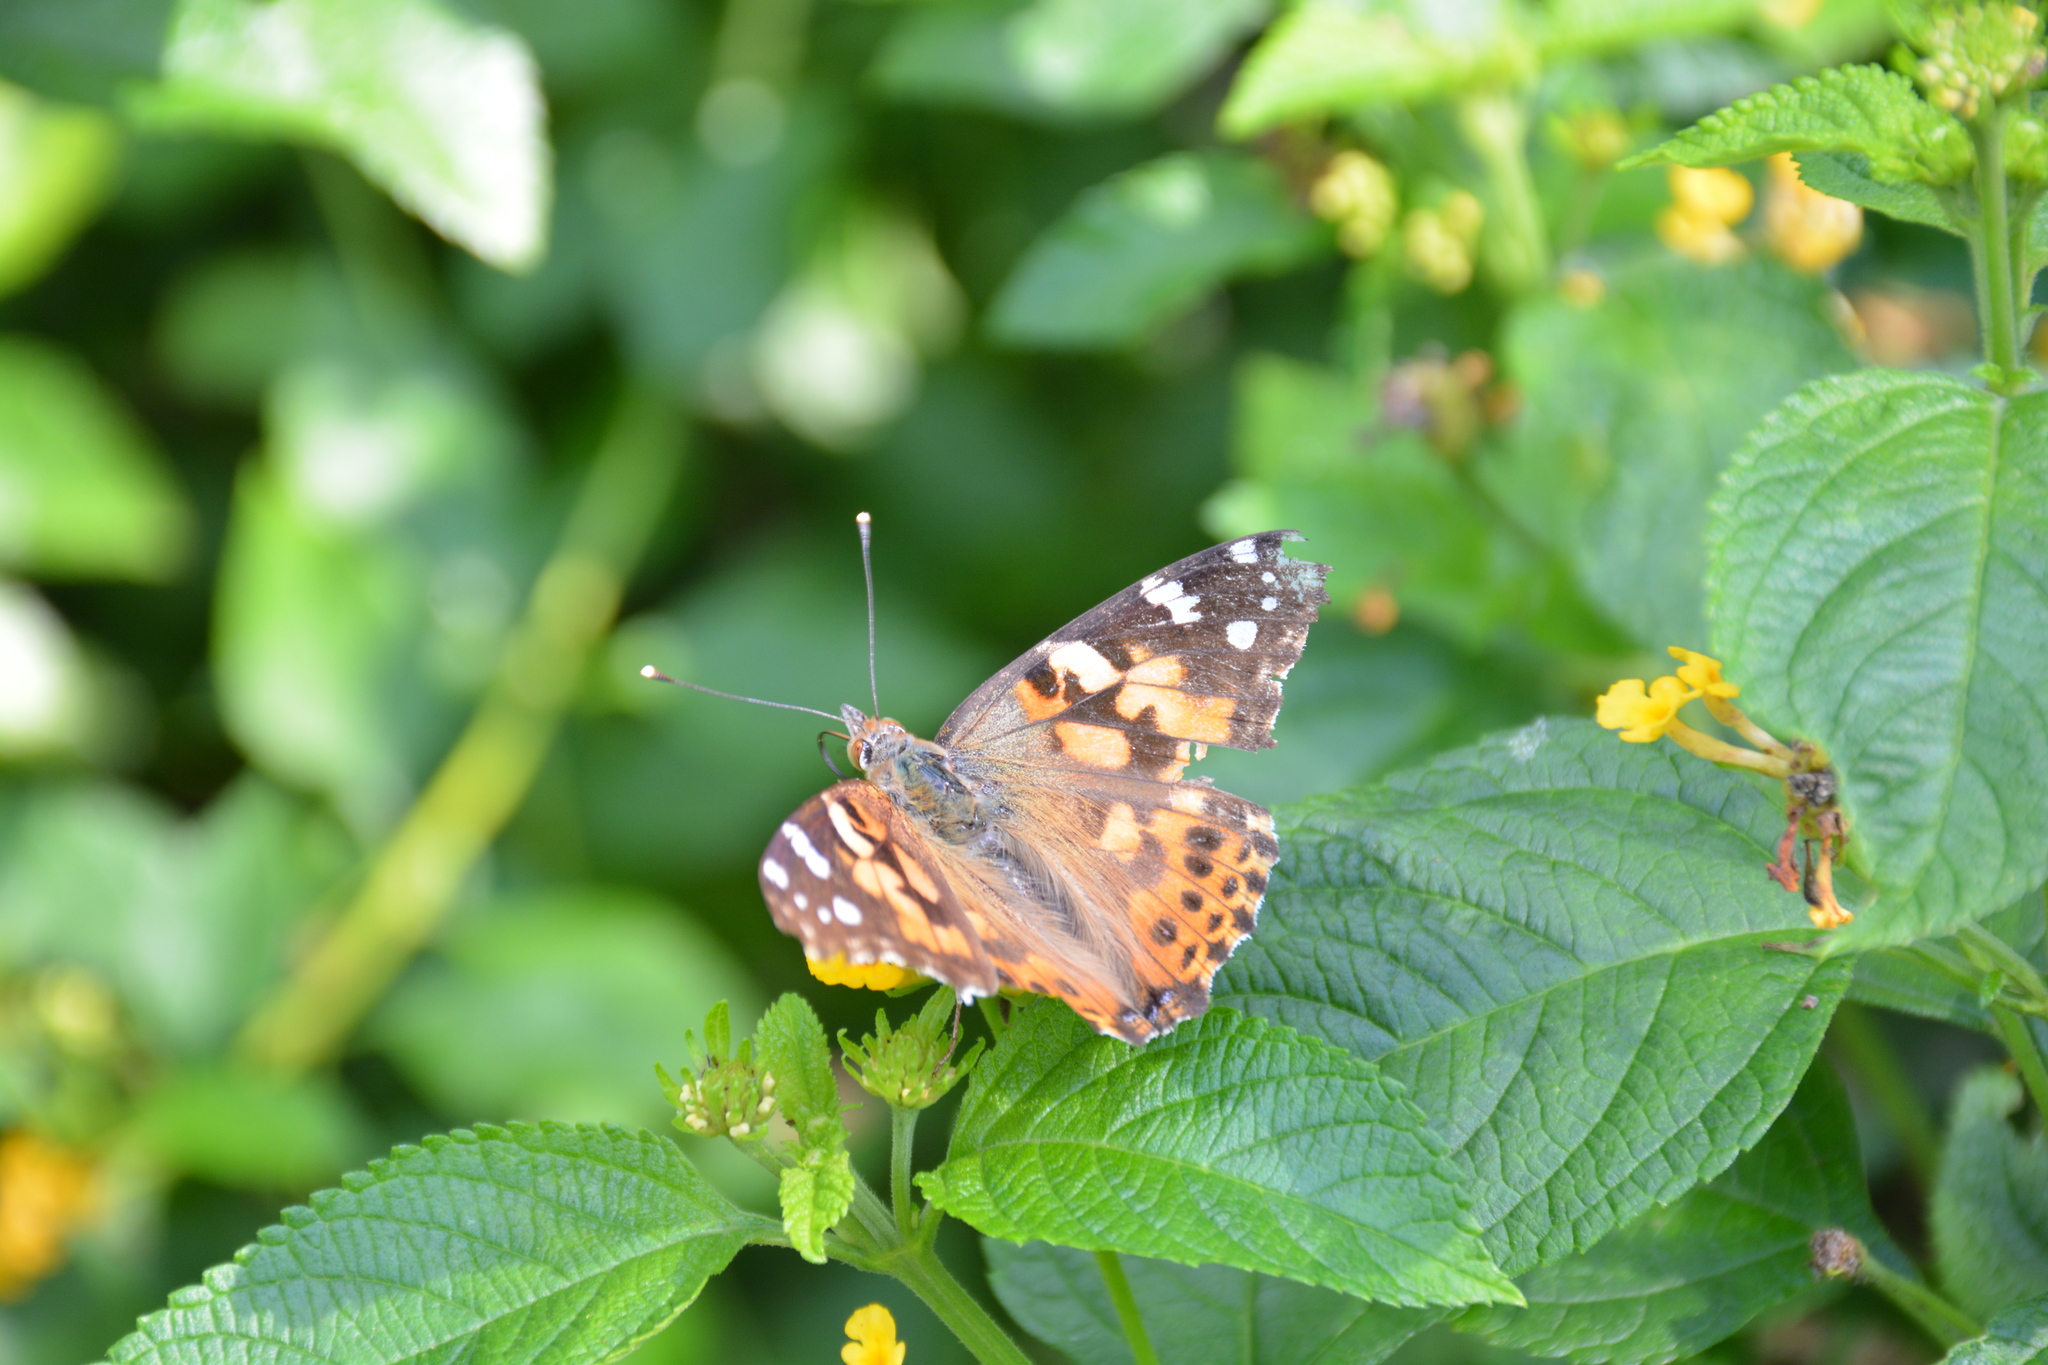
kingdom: Animalia
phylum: Arthropoda
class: Insecta
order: Lepidoptera
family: Nymphalidae
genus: Vanessa
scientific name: Vanessa cardui
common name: Painted lady
